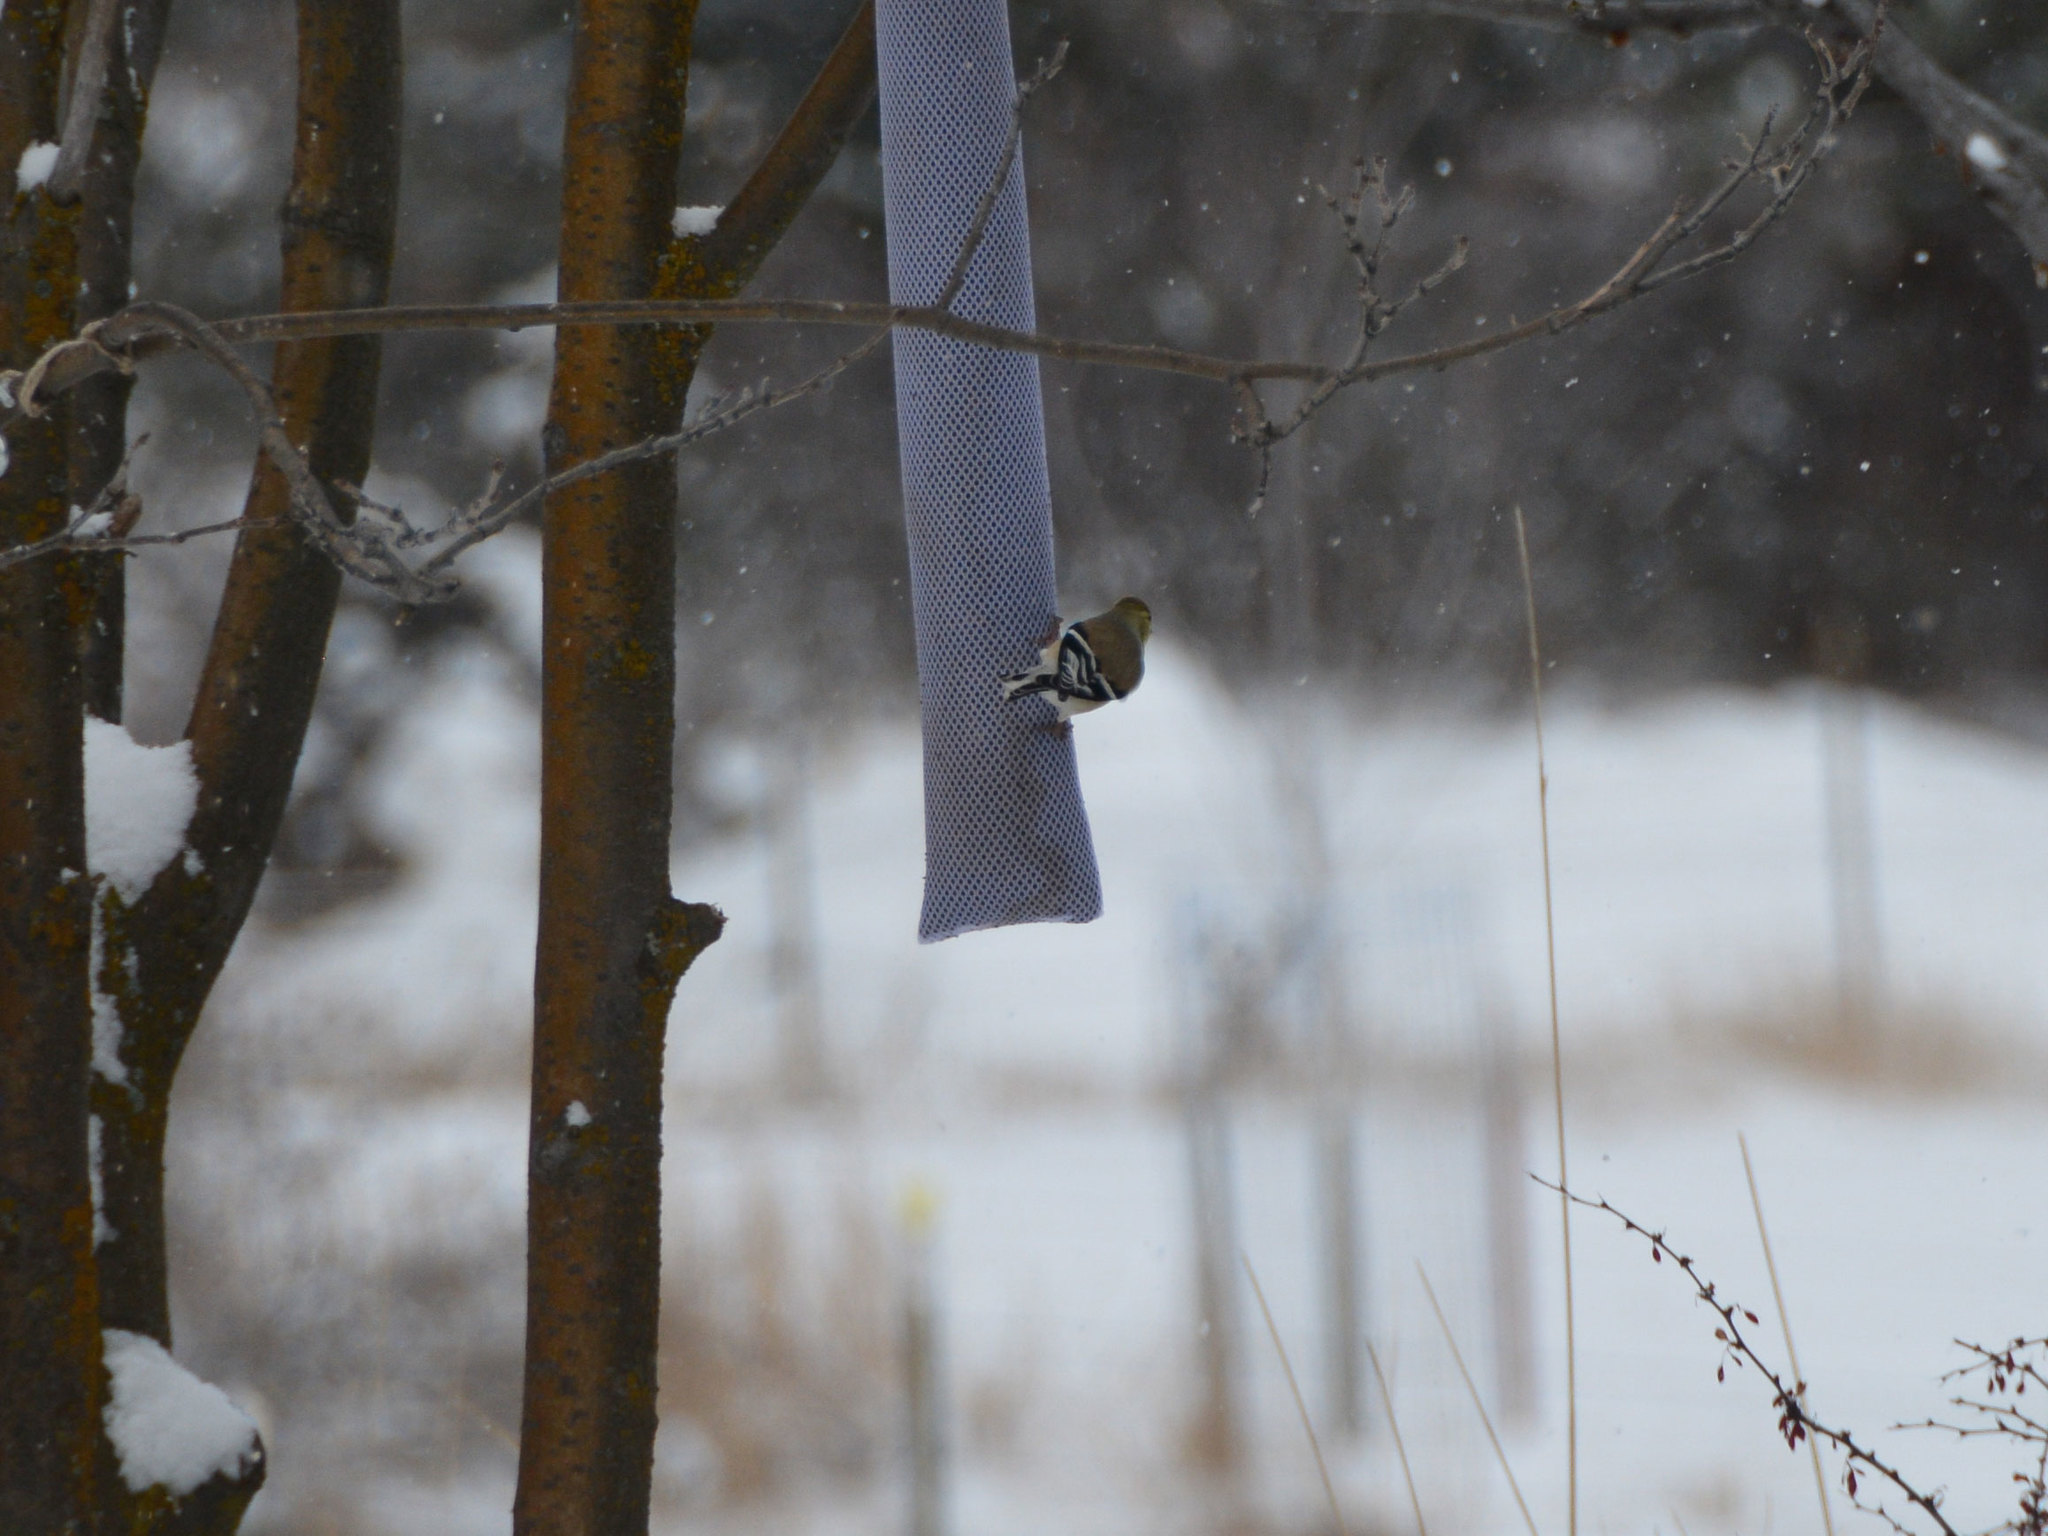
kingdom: Animalia
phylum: Chordata
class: Aves
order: Passeriformes
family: Fringillidae
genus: Spinus
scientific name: Spinus tristis
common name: American goldfinch
